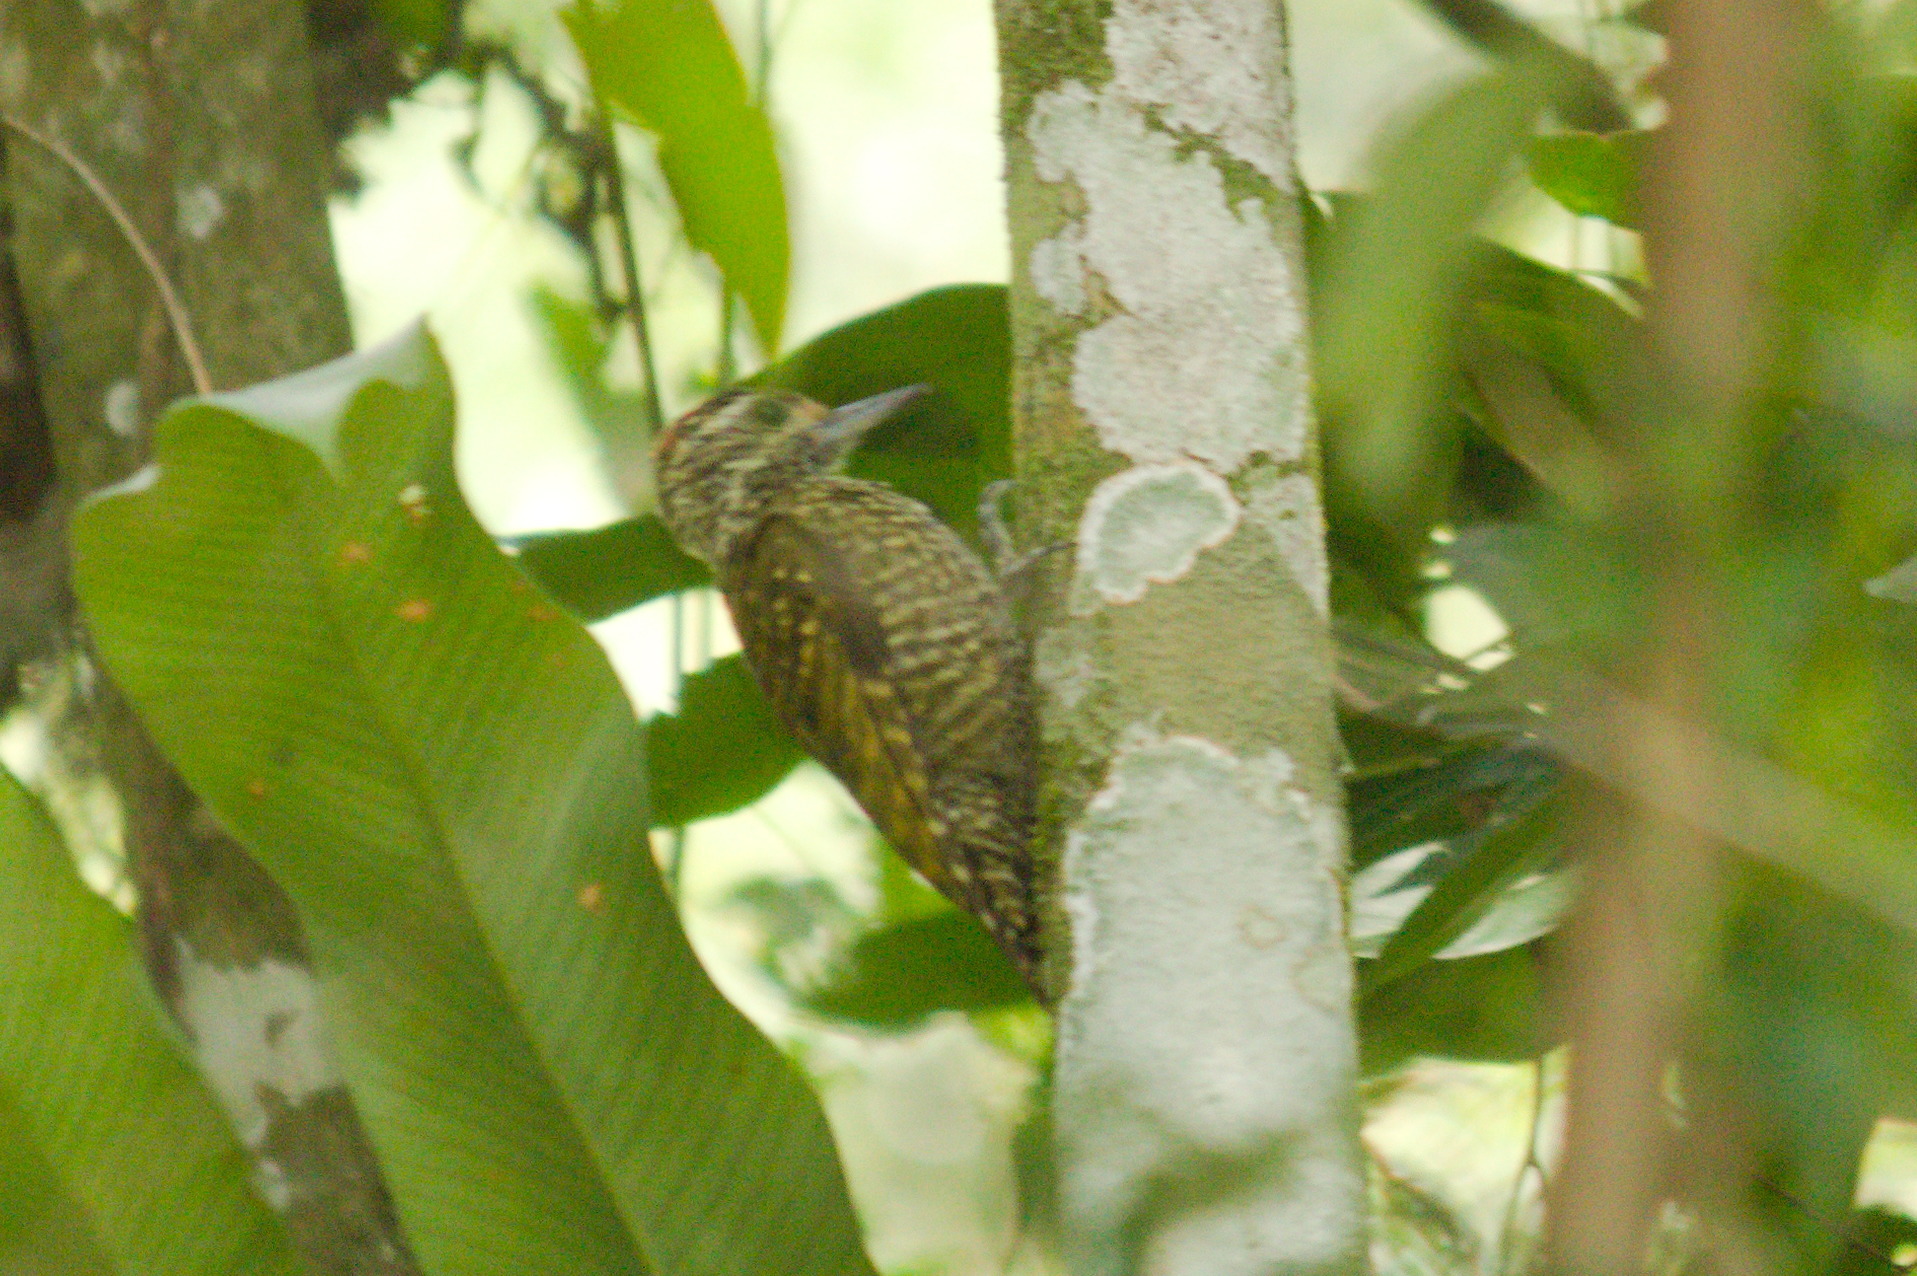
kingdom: Animalia
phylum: Chordata
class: Aves
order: Piciformes
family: Picidae
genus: Veniliornis
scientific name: Veniliornis spilogaster
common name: White-spotted woodpecker
